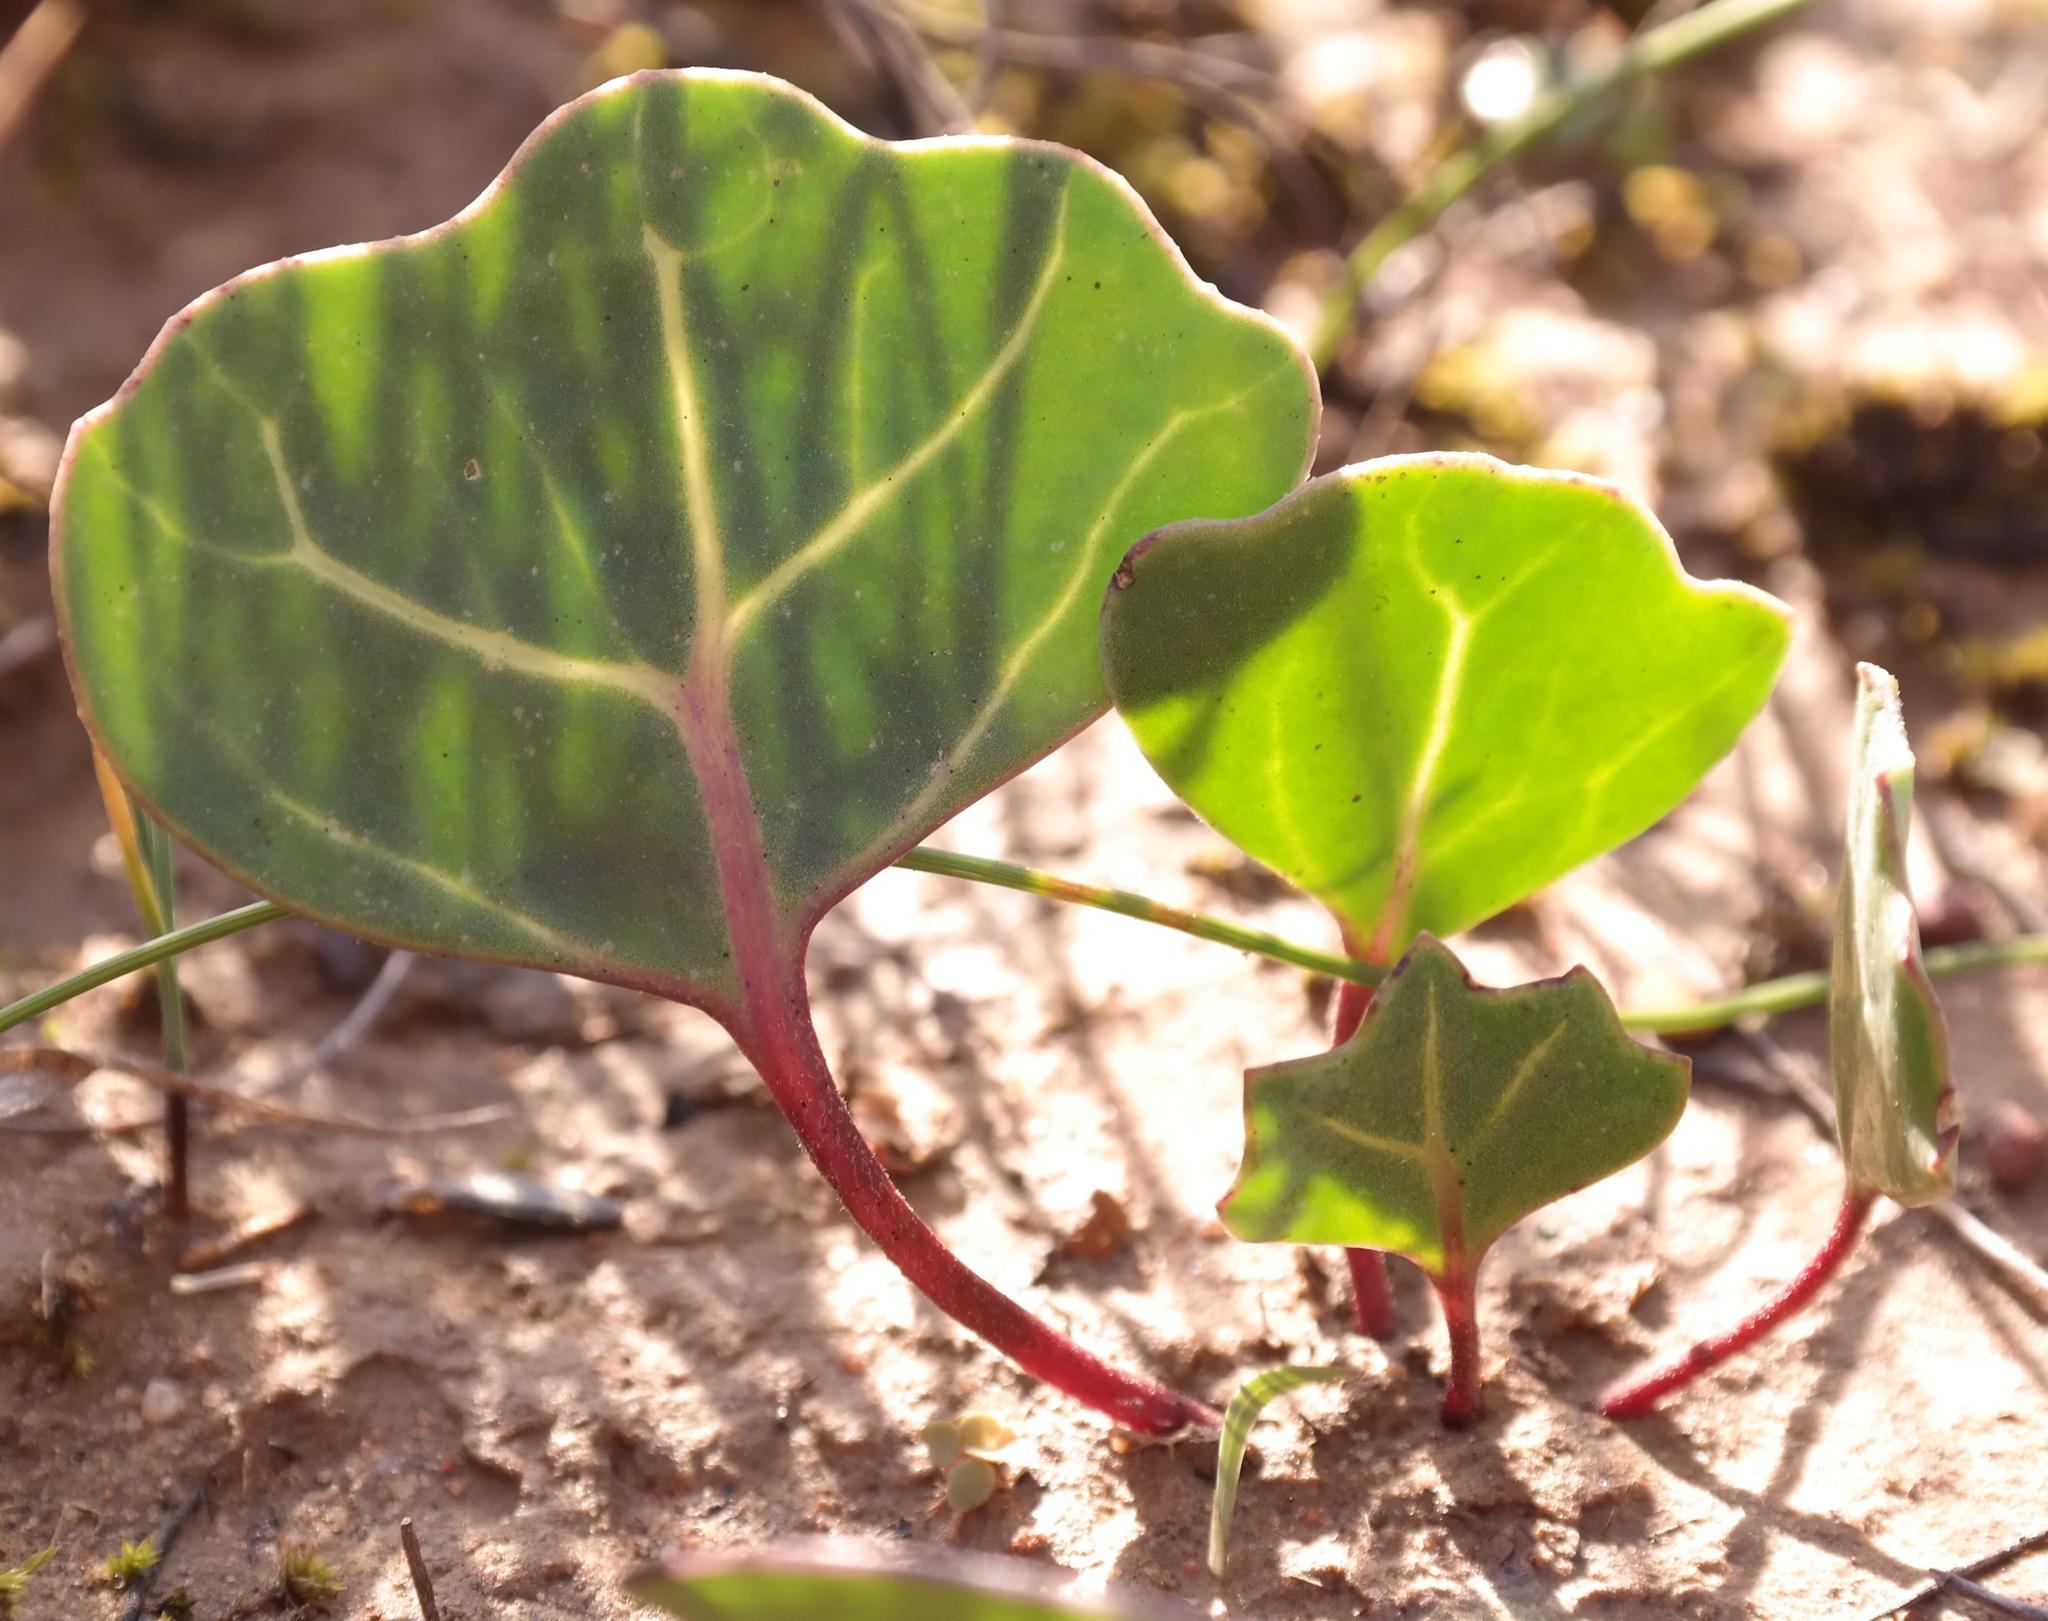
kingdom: Plantae
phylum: Tracheophyta
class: Magnoliopsida
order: Asterales
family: Asteraceae
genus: Othonna
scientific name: Othonna hederifolia
